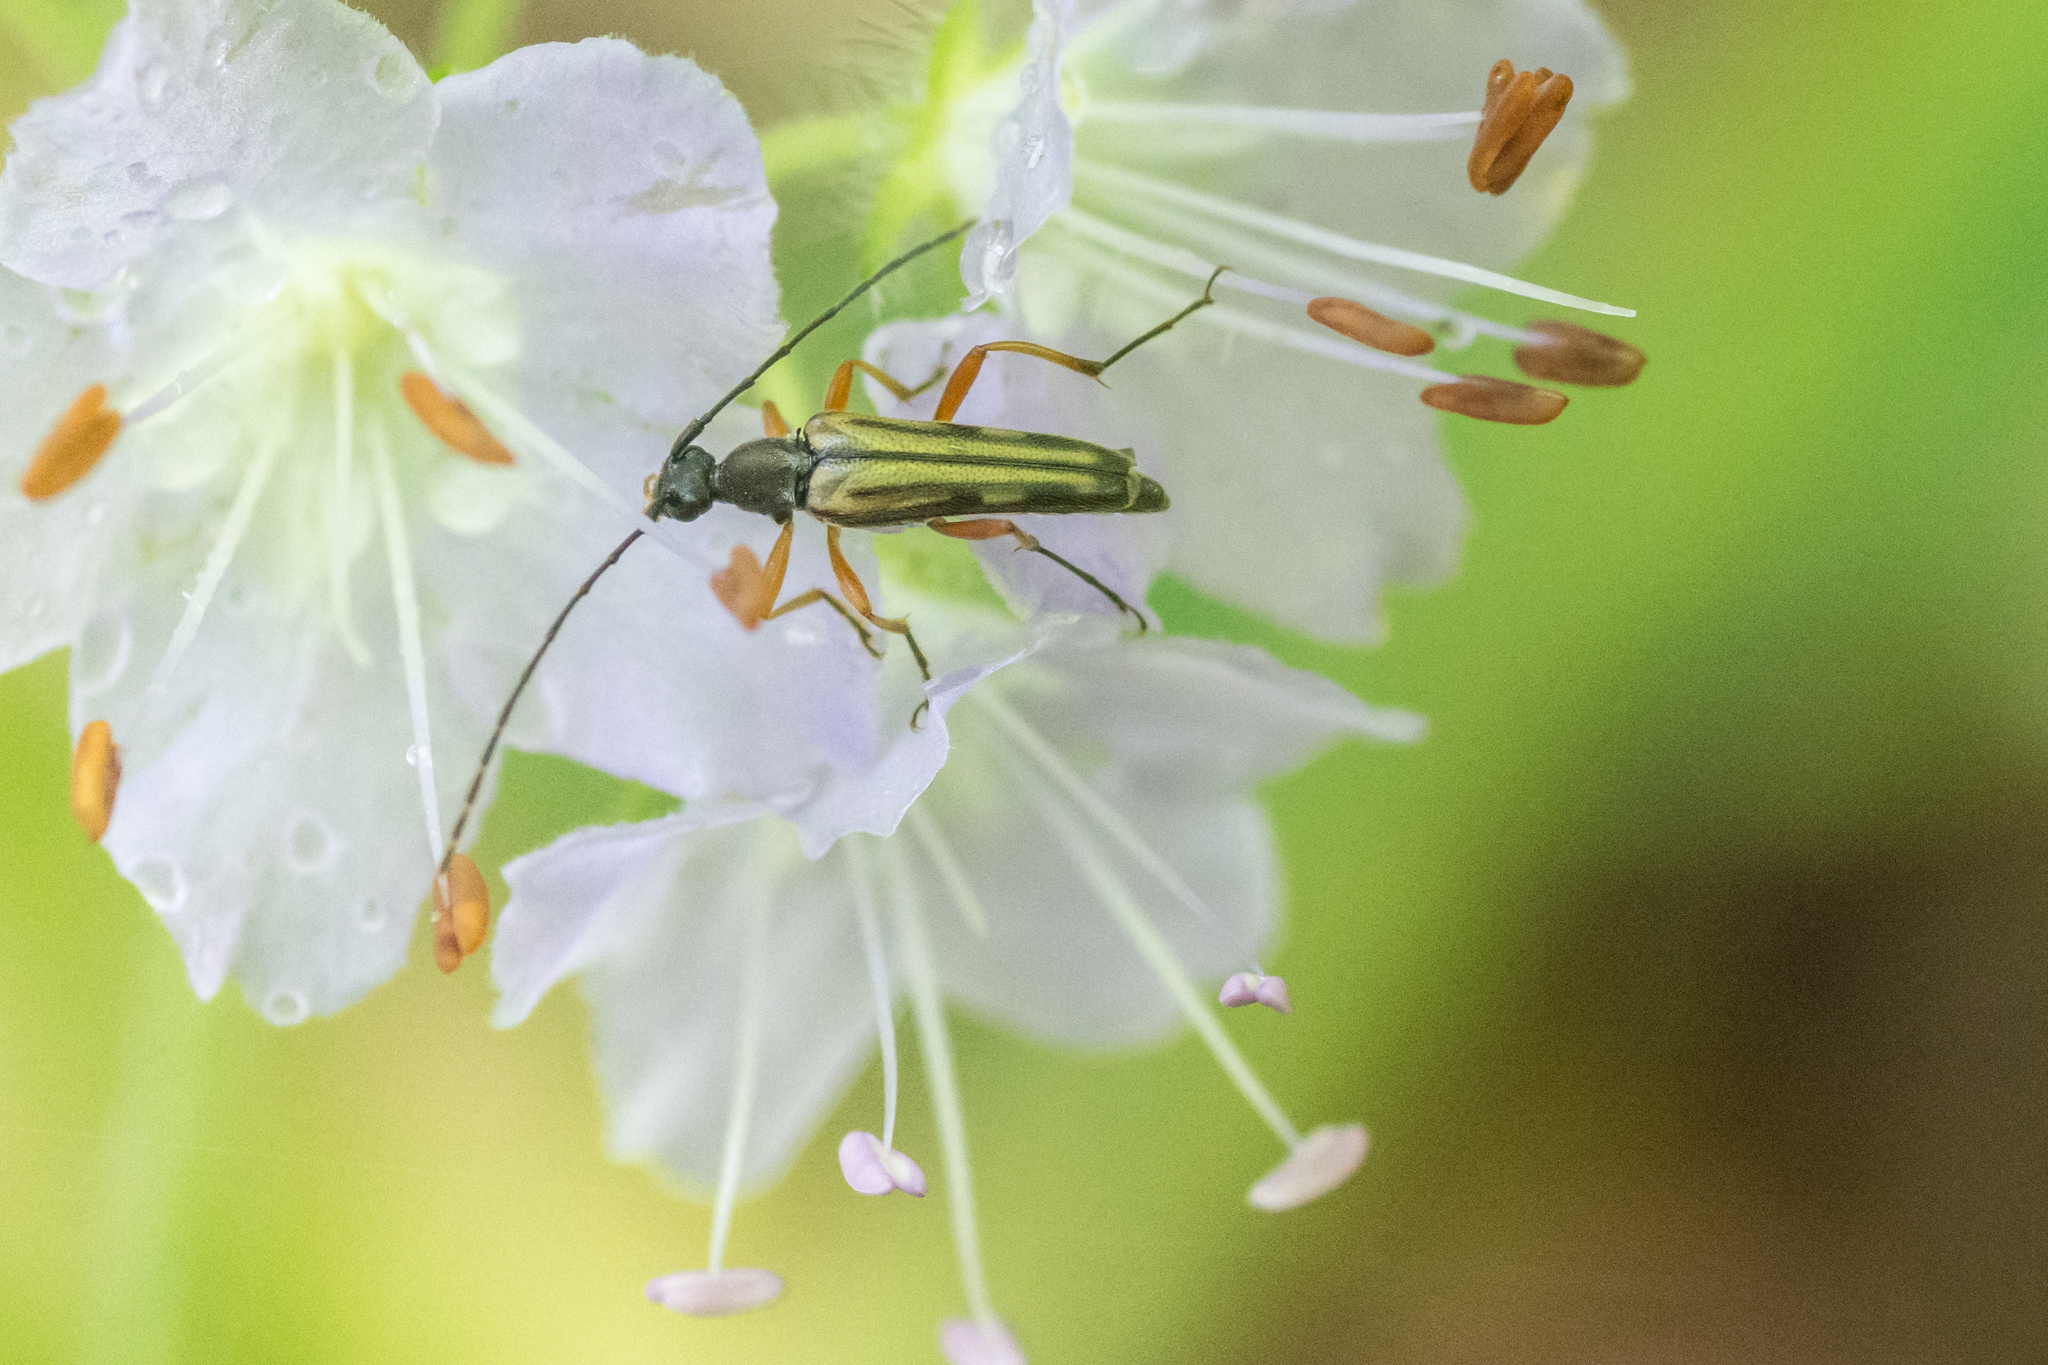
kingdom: Animalia
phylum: Arthropoda
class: Insecta
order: Coleoptera
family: Cerambycidae
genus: Analeptura
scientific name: Analeptura lineola
